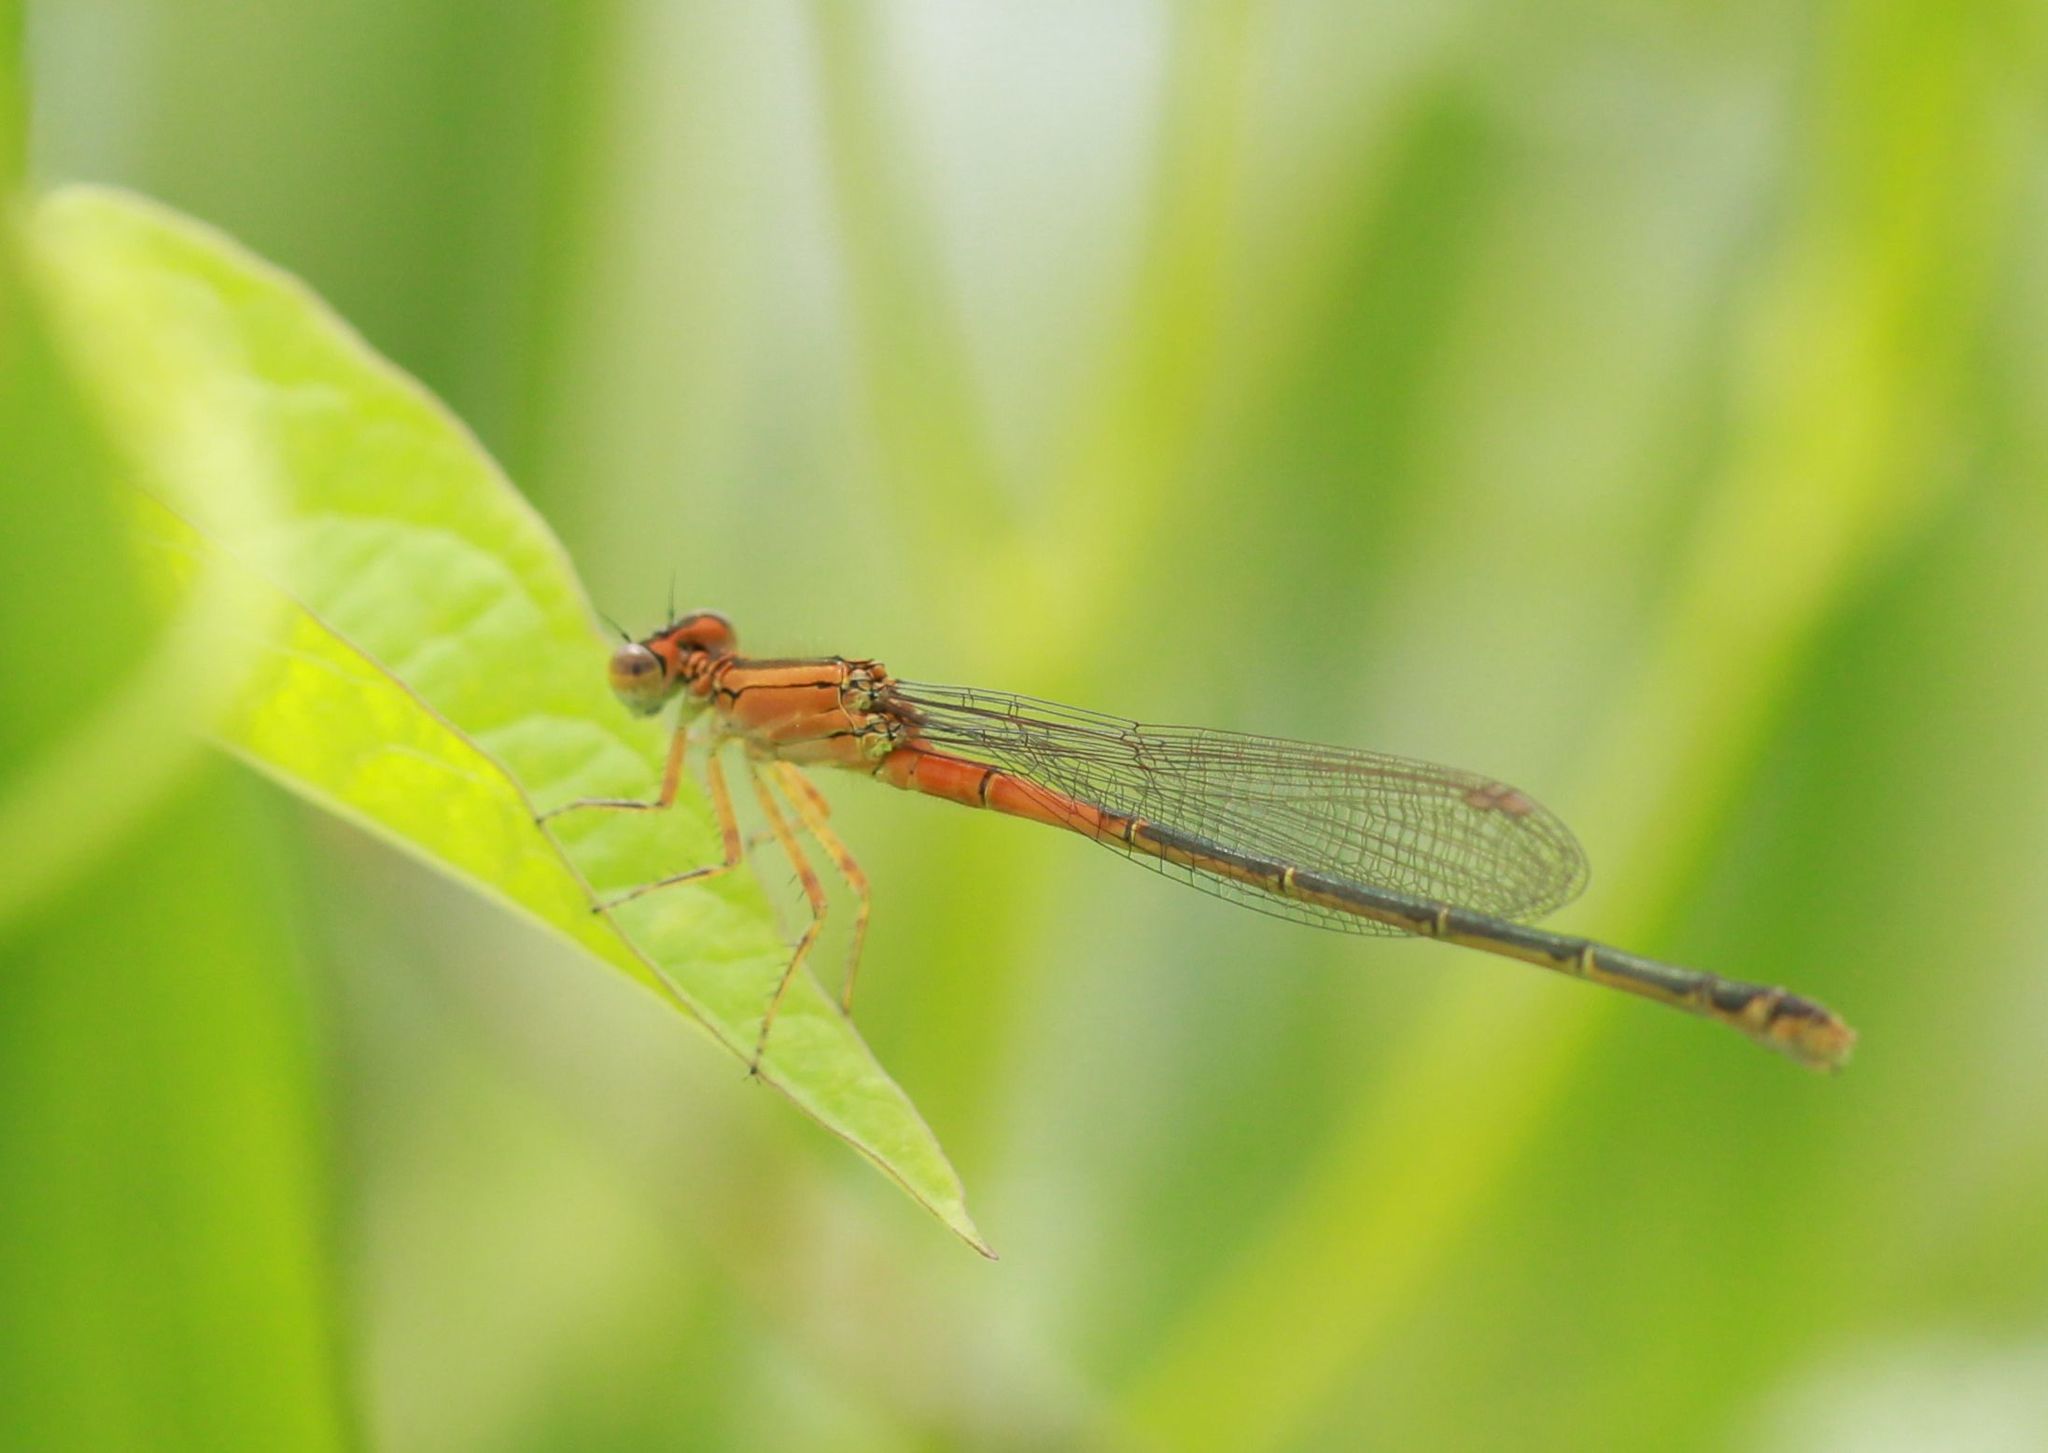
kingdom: Animalia
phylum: Arthropoda
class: Insecta
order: Odonata
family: Coenagrionidae
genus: Ischnura
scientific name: Ischnura verticalis
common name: Eastern forktail
